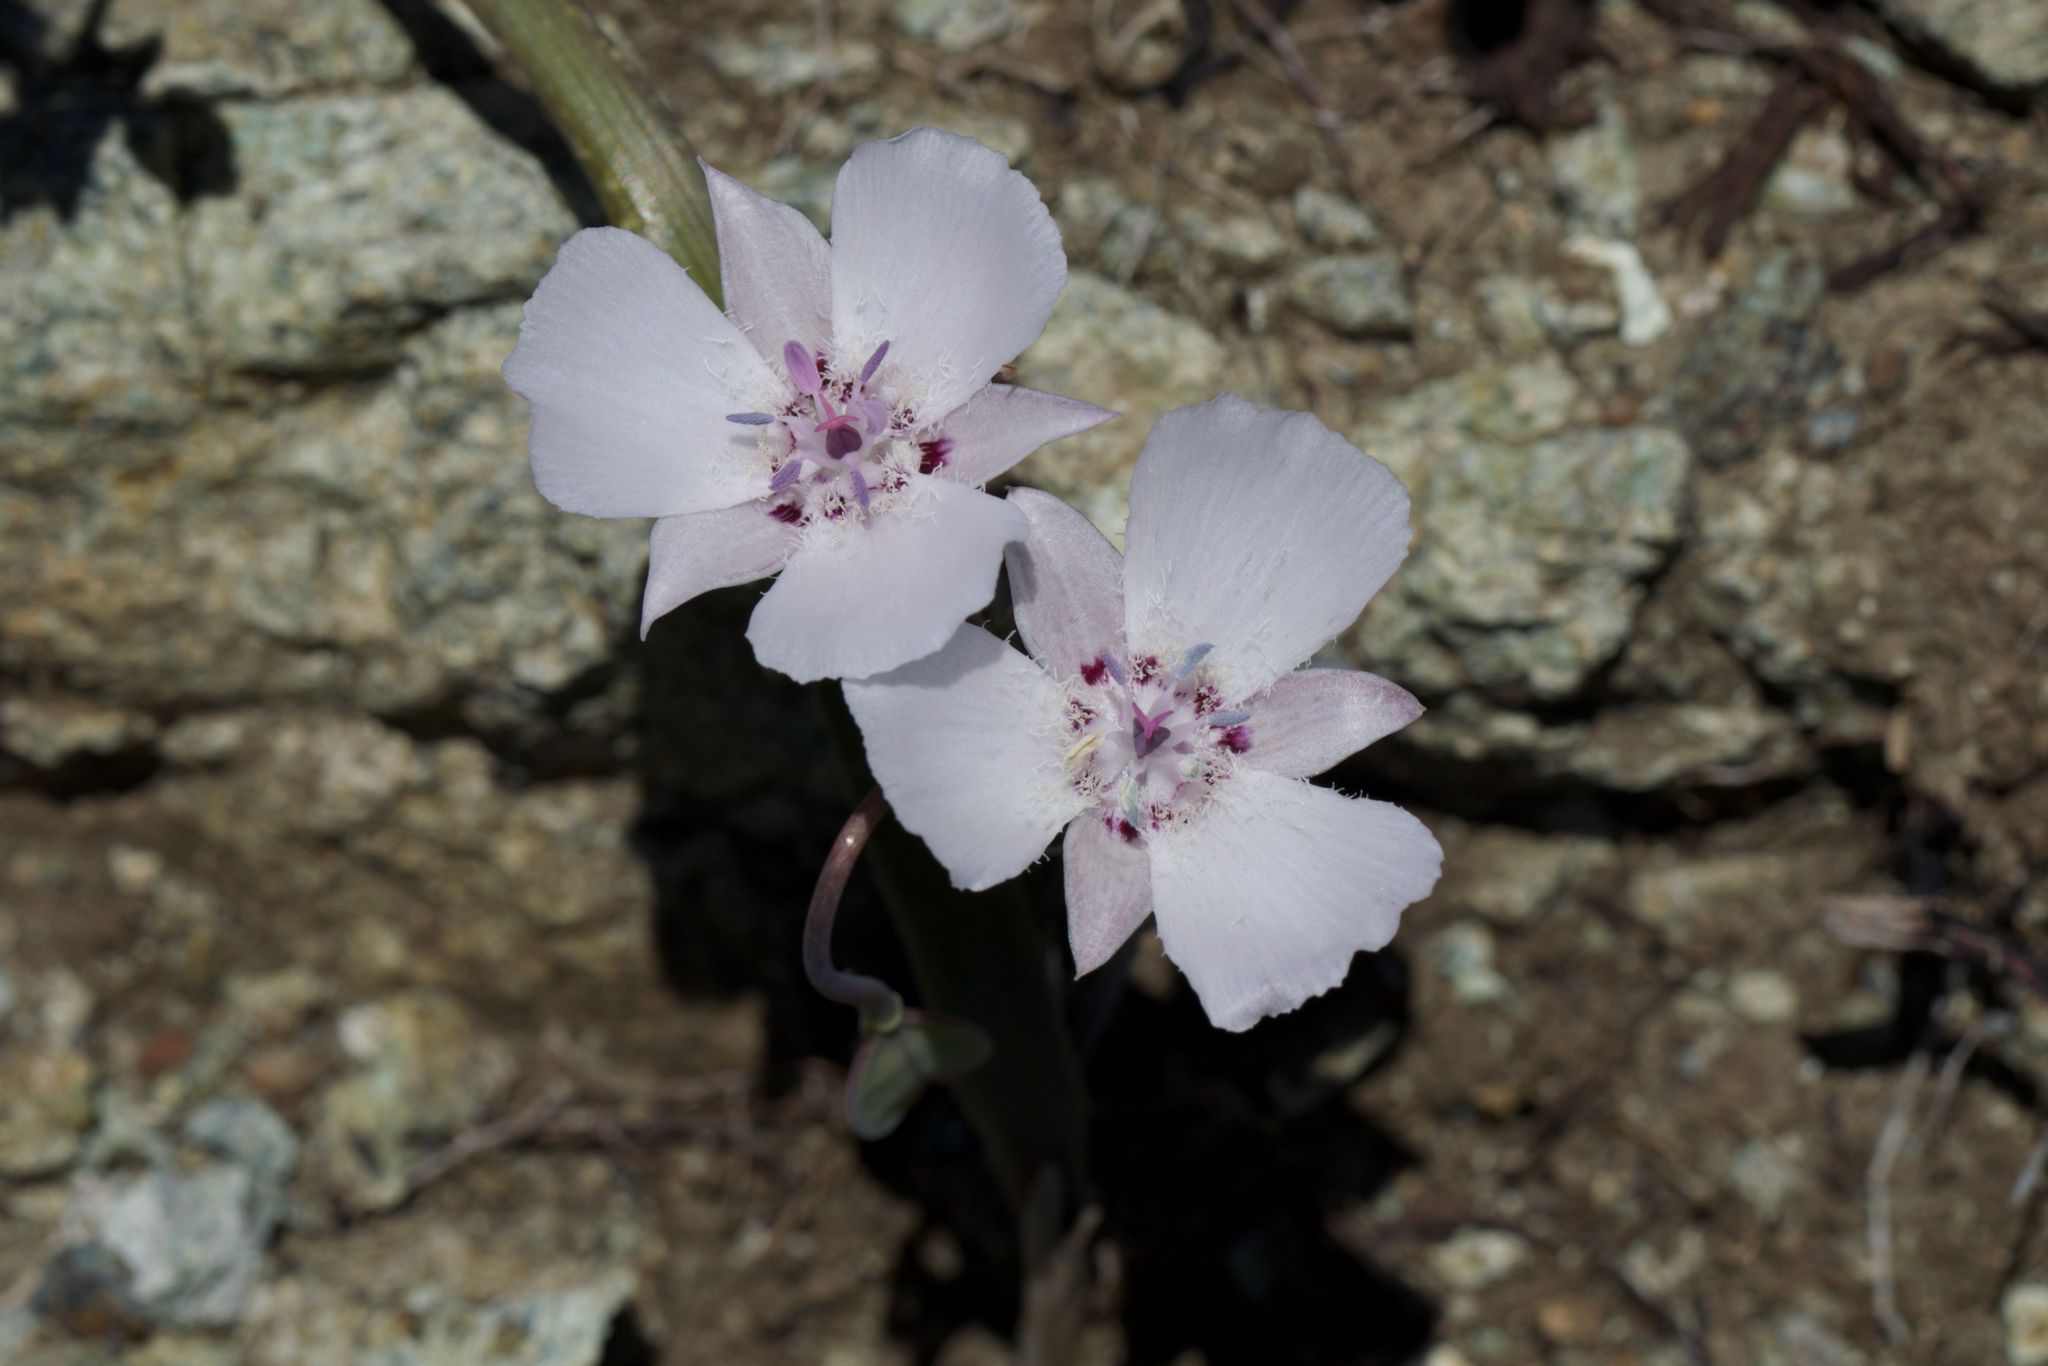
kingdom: Plantae
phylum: Tracheophyta
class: Liliopsida
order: Liliales
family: Liliaceae
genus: Calochortus
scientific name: Calochortus umbellatus
